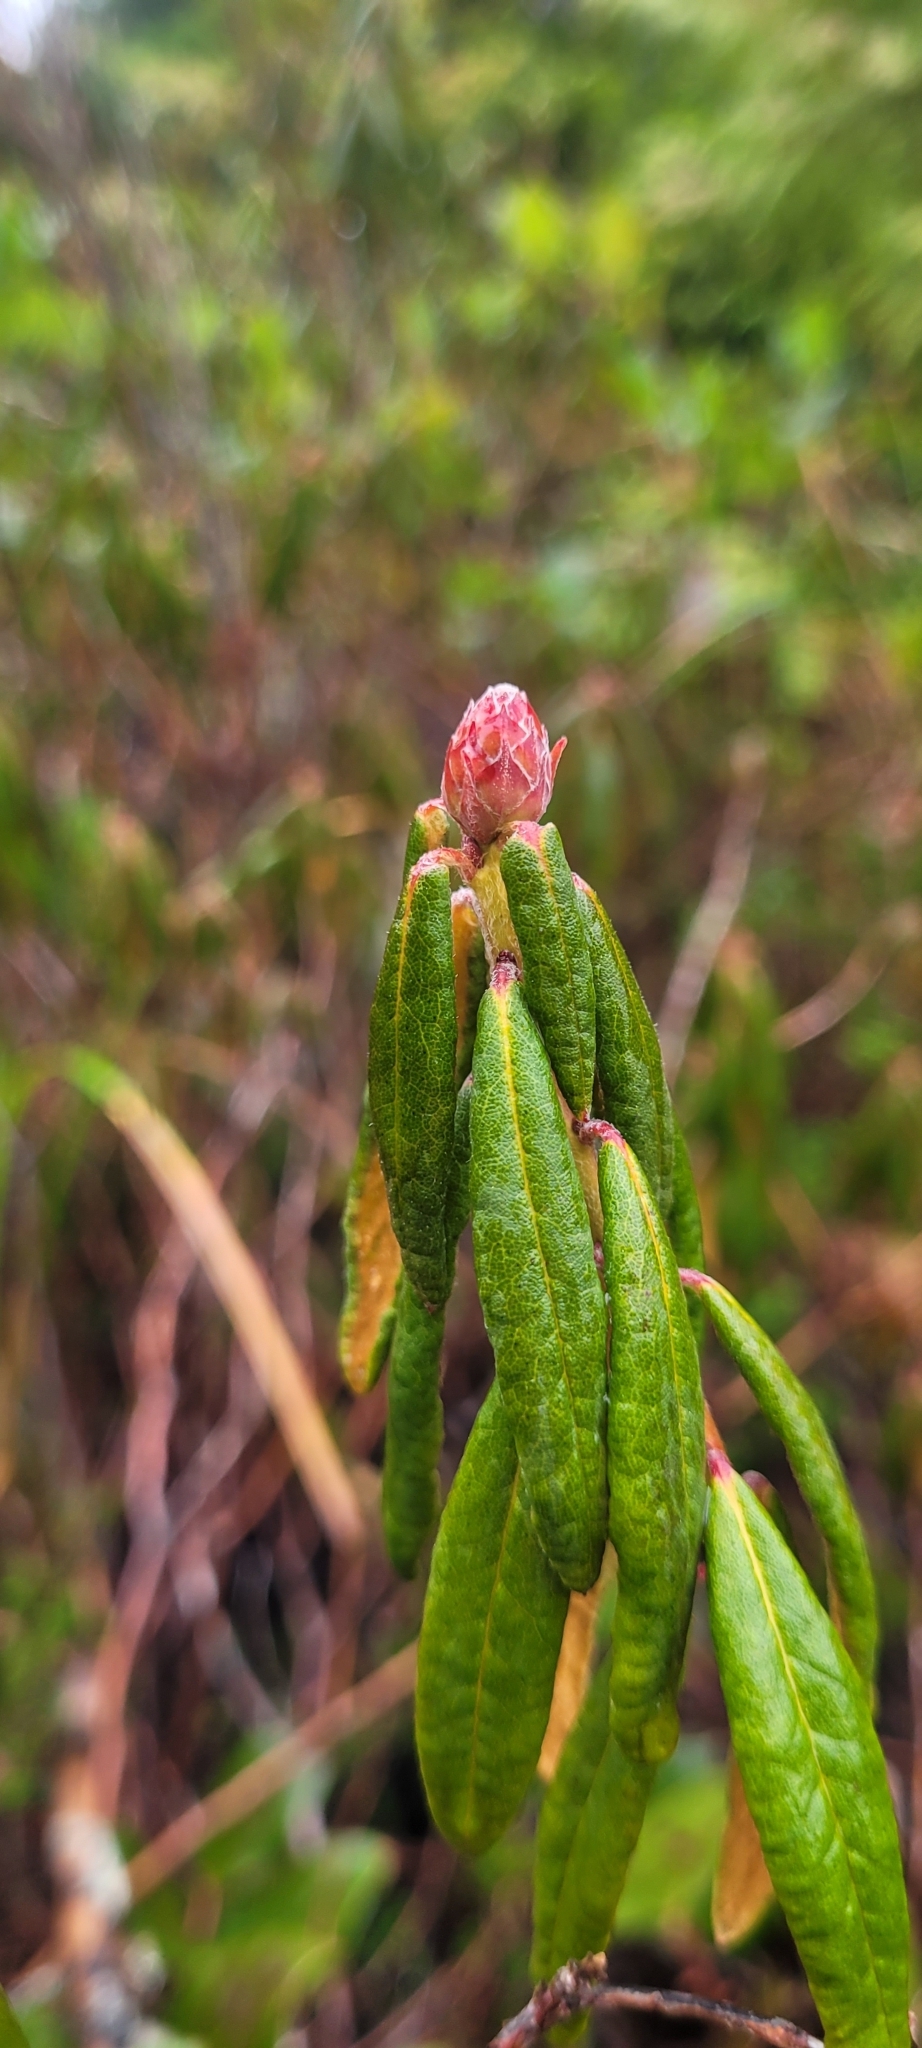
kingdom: Plantae
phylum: Tracheophyta
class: Magnoliopsida
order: Ericales
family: Ericaceae
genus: Rhododendron
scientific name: Rhododendron groenlandicum
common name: Bog labrador tea
